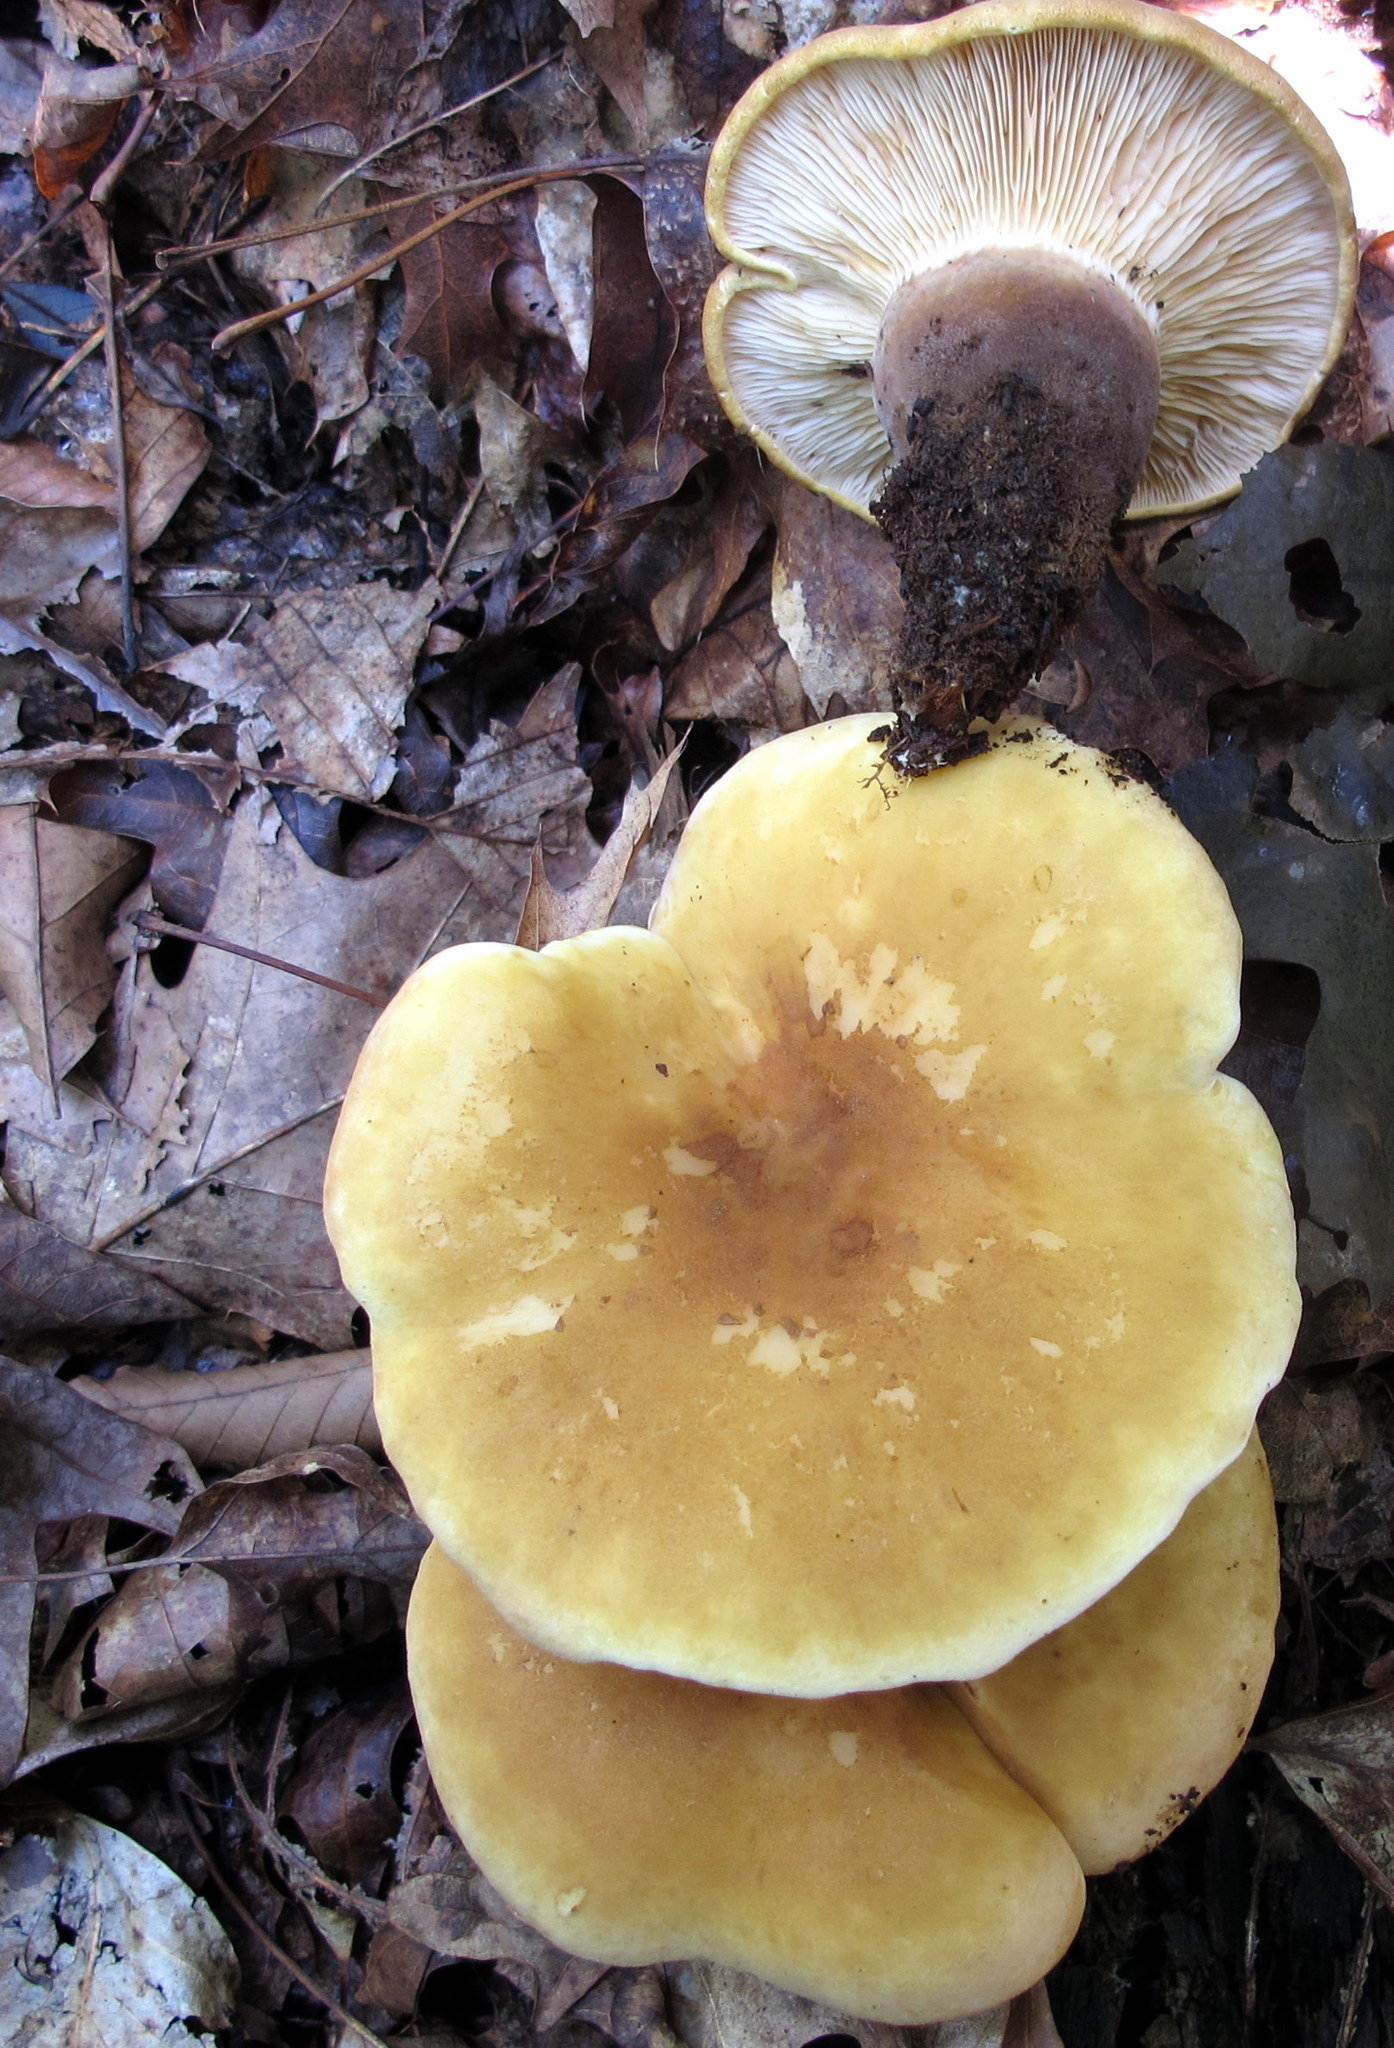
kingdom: Fungi
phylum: Basidiomycota
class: Agaricomycetes
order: Boletales
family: Tapinellaceae
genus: Tapinella
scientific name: Tapinella atrotomentosa
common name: Velvet rollrim
